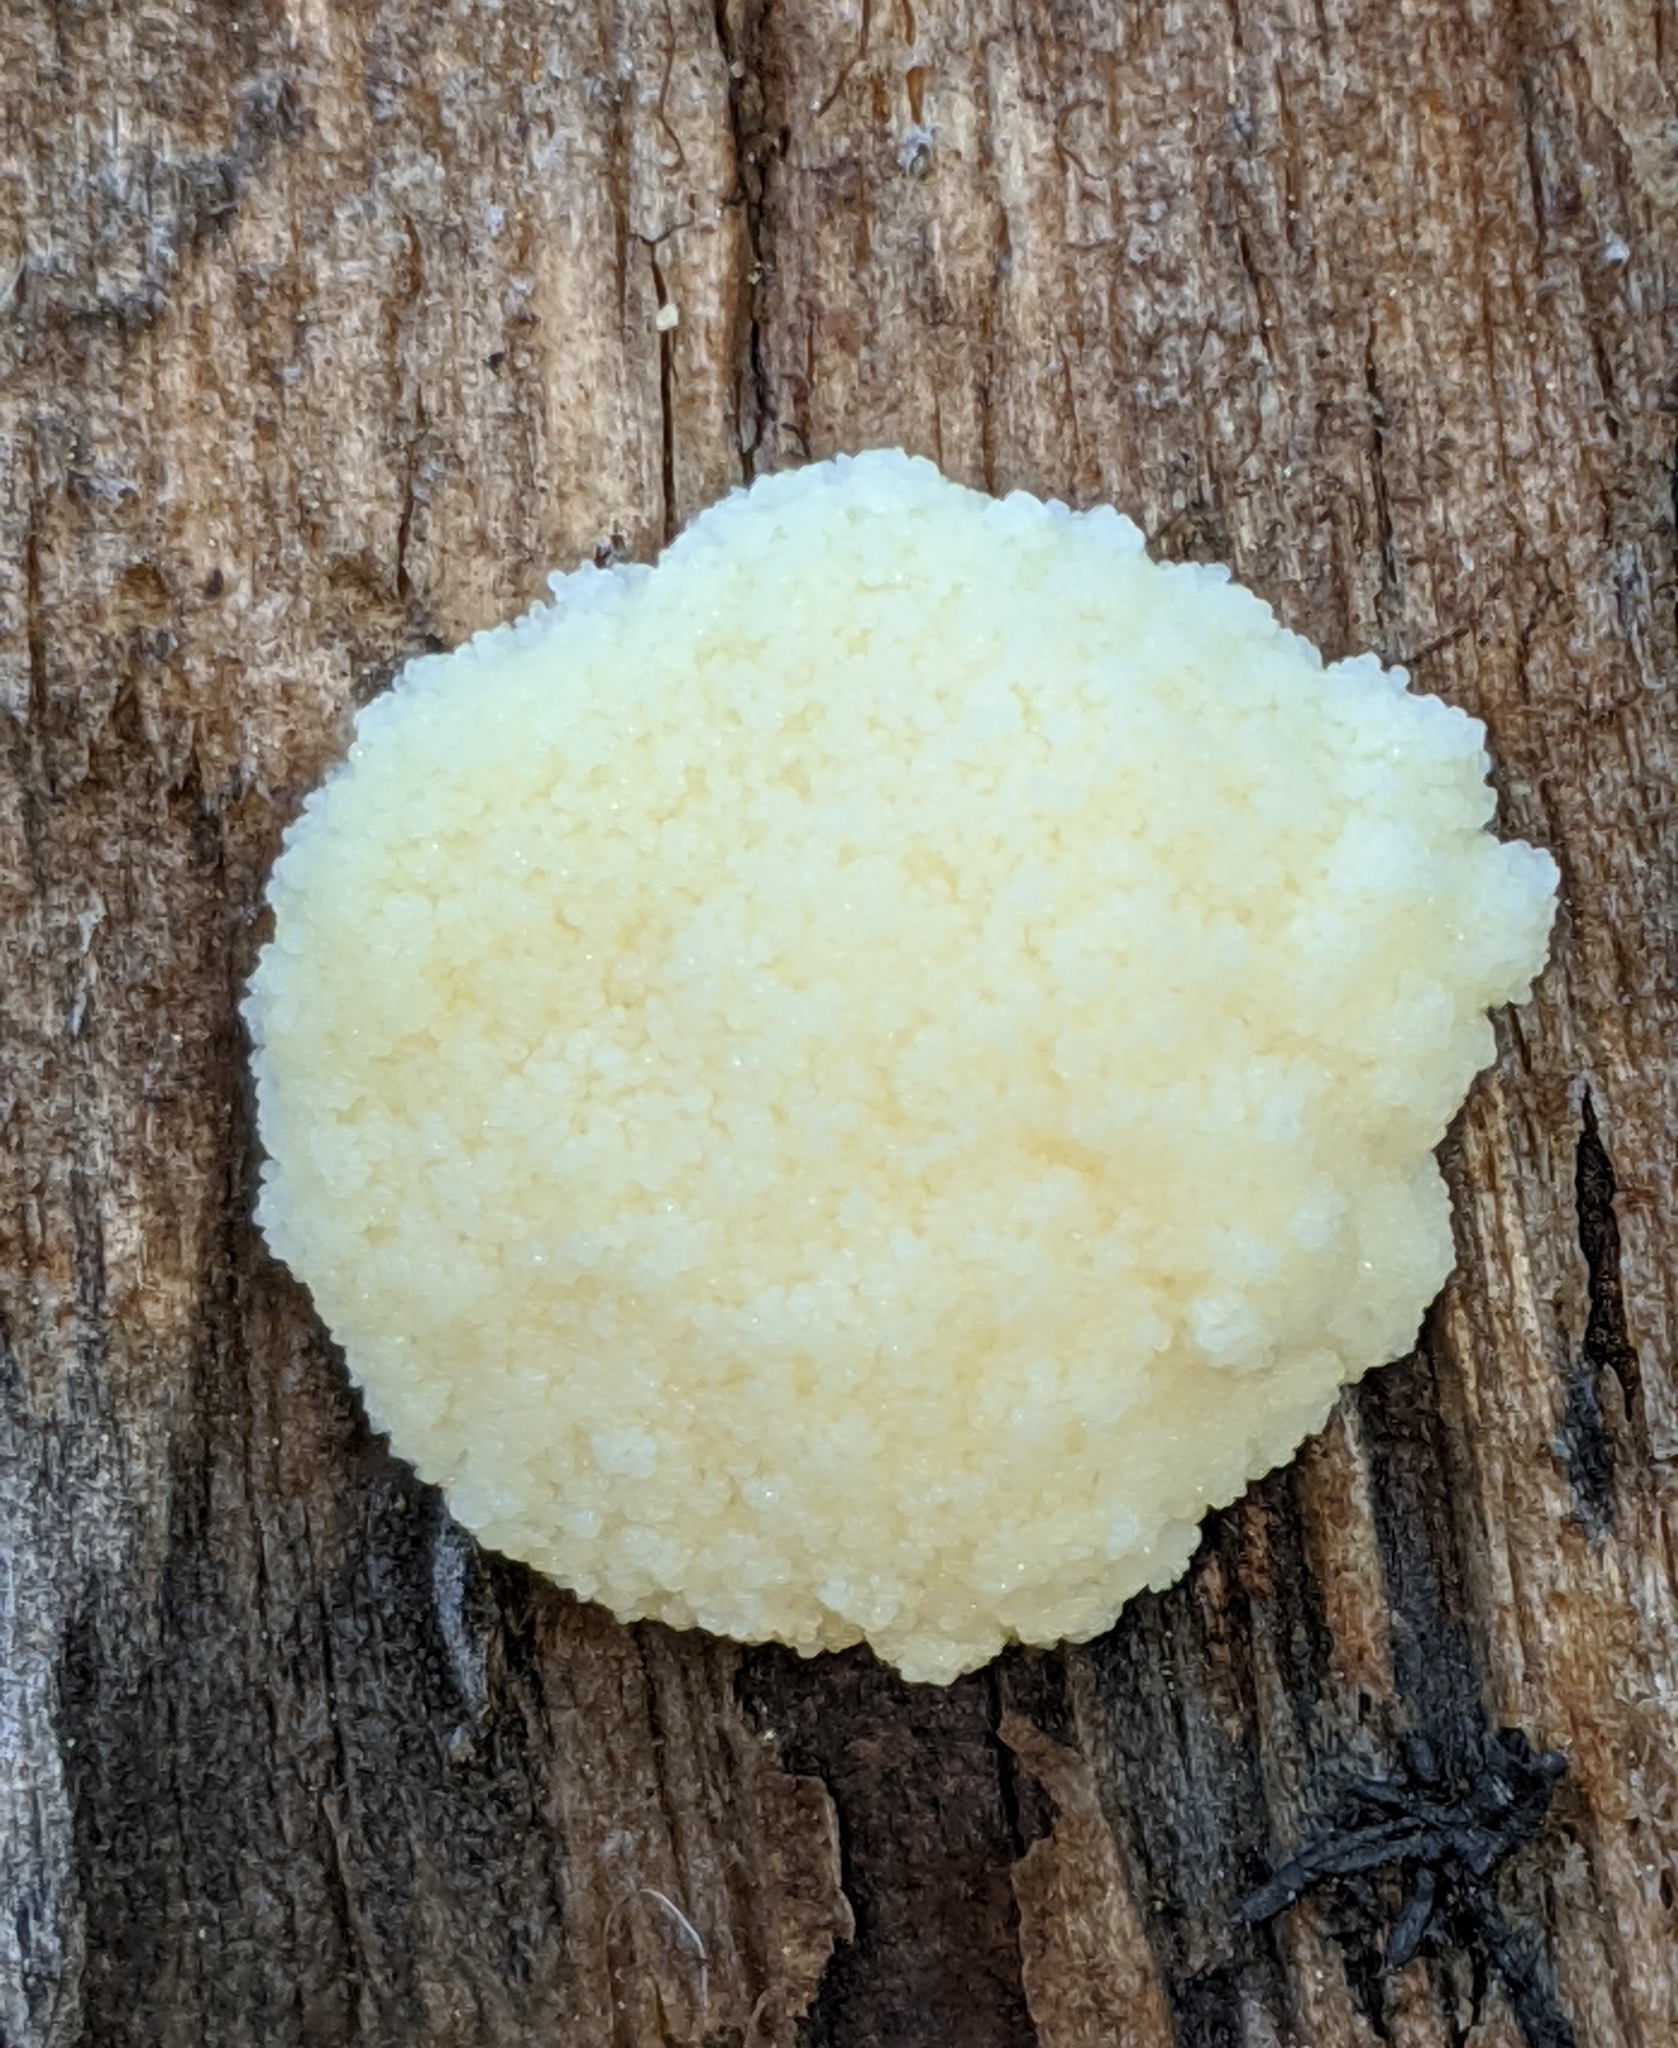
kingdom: Protozoa
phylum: Mycetozoa
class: Myxomycetes
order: Cribrariales
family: Tubiferaceae
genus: Reticularia
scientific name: Reticularia lycoperdon
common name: False puffball
